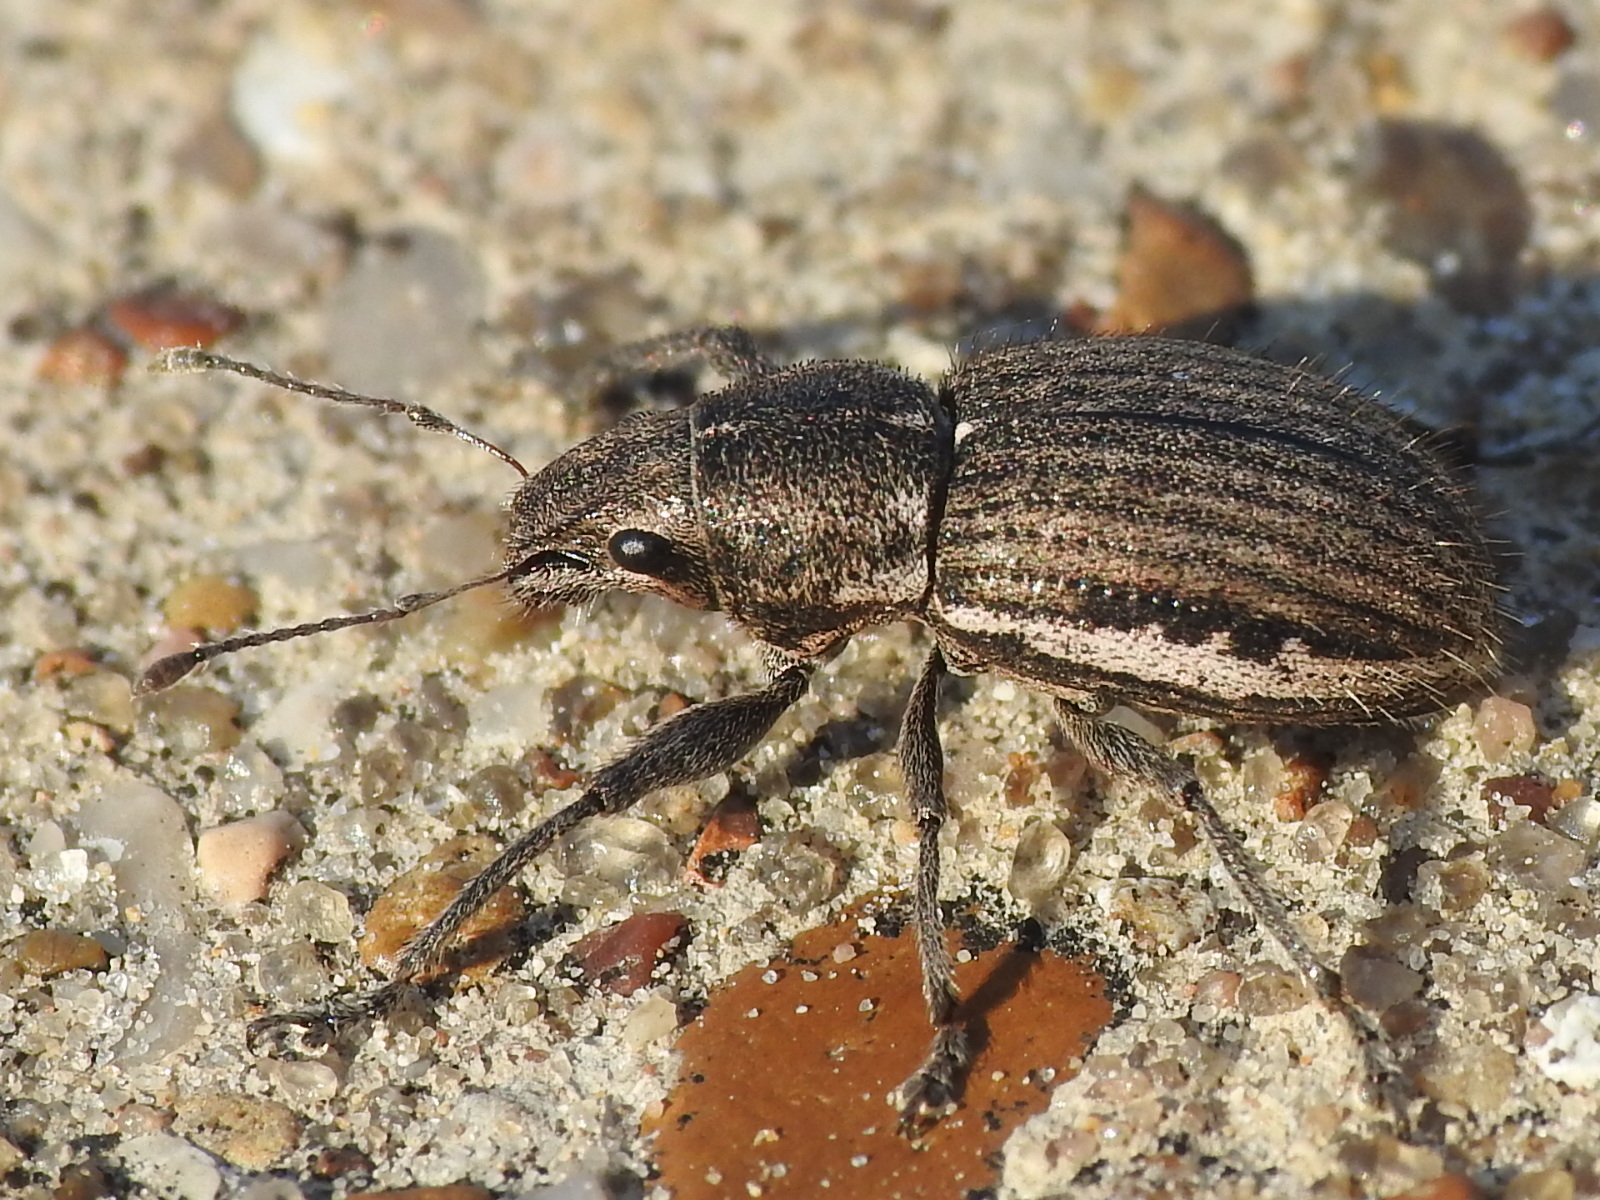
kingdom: Animalia
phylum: Arthropoda
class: Insecta
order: Coleoptera
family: Curculionidae
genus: Naupactus
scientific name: Naupactus leucoloma
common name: Whitefringed beetle
